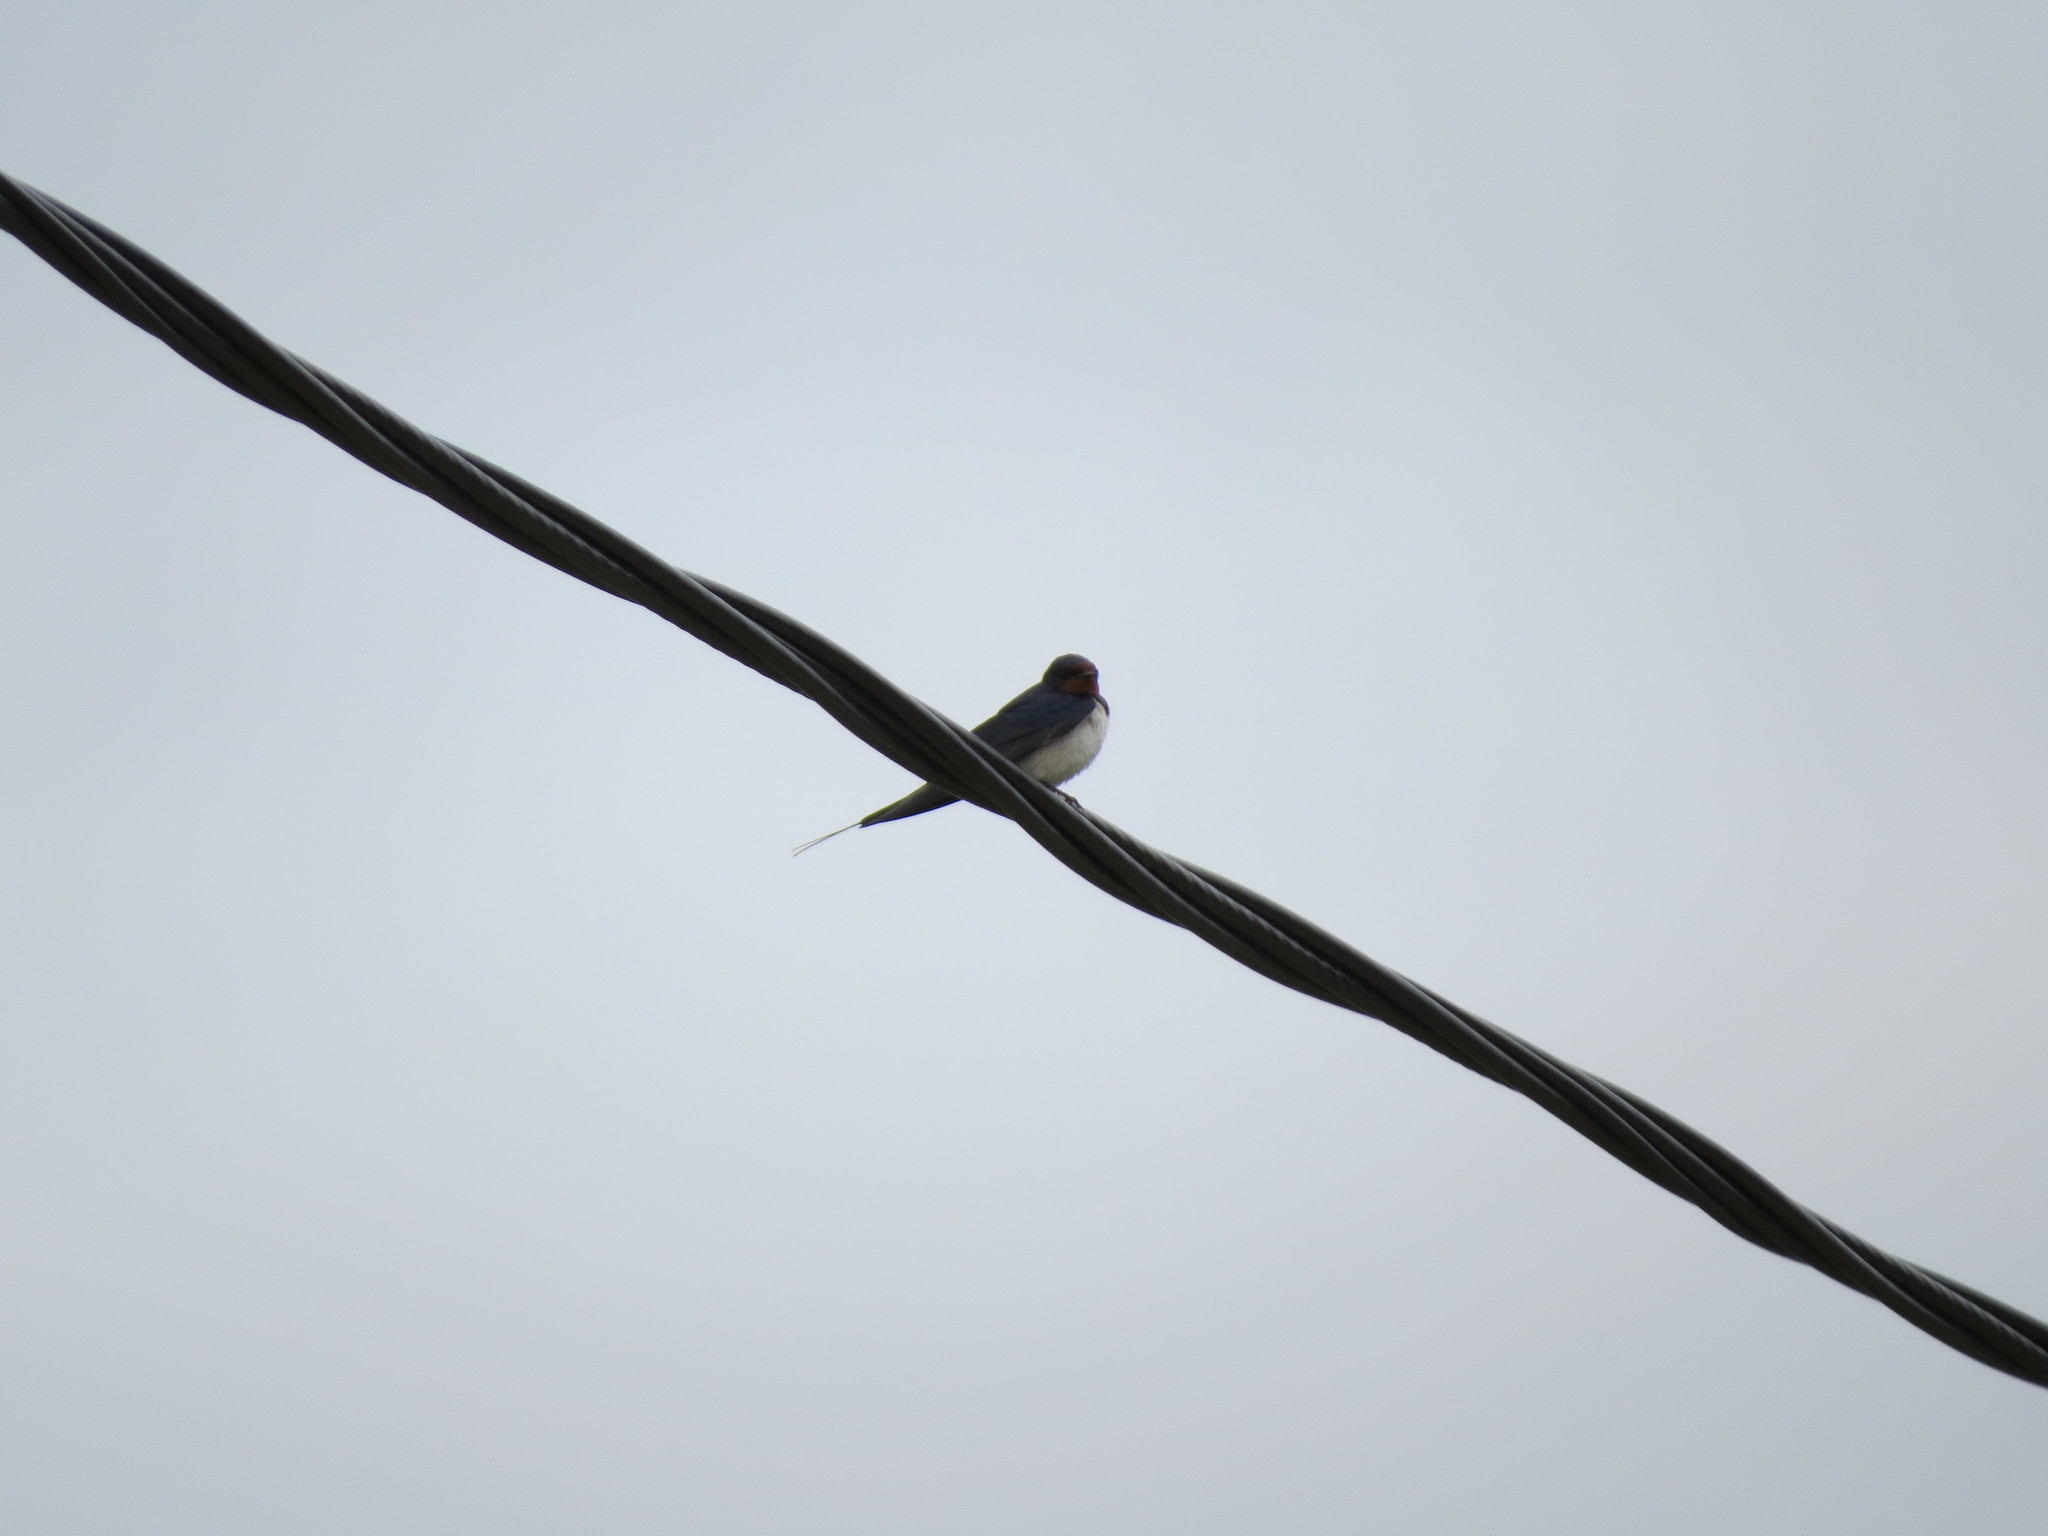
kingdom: Animalia
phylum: Chordata
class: Aves
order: Passeriformes
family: Hirundinidae
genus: Hirundo
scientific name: Hirundo rustica
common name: Barn swallow
